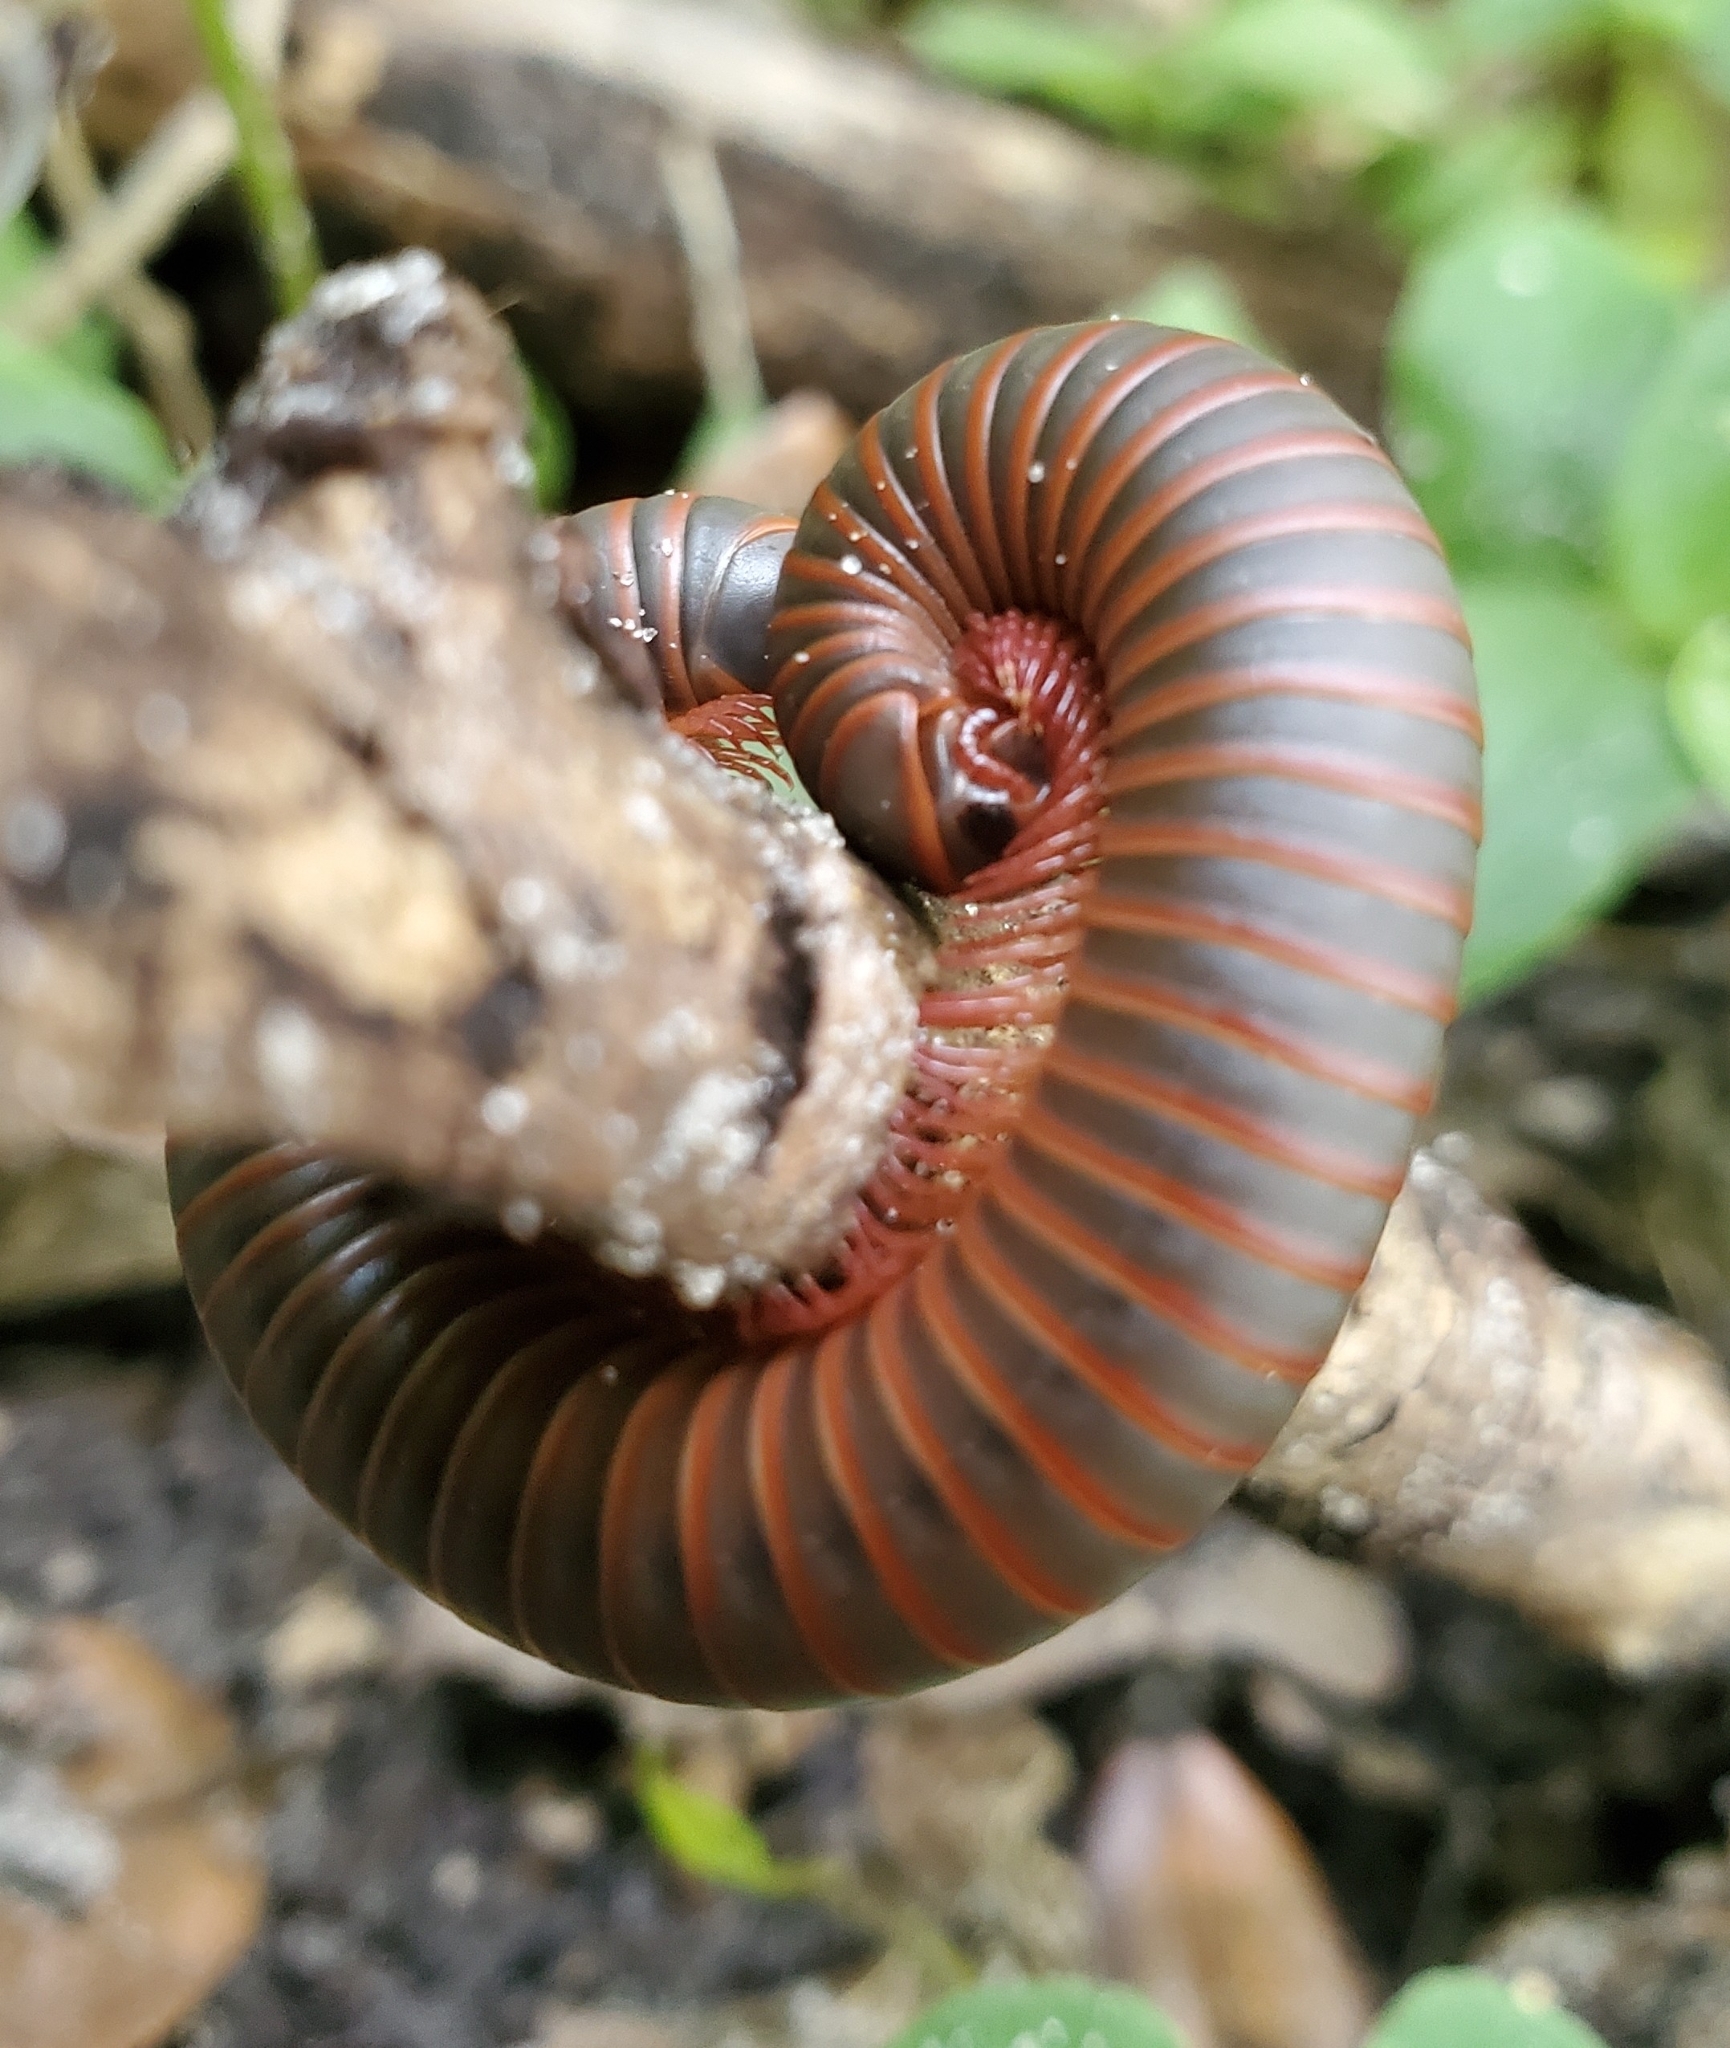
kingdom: Animalia
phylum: Arthropoda
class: Diplopoda
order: Spirobolida
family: Spirobolidae
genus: Narceus
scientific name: Narceus
